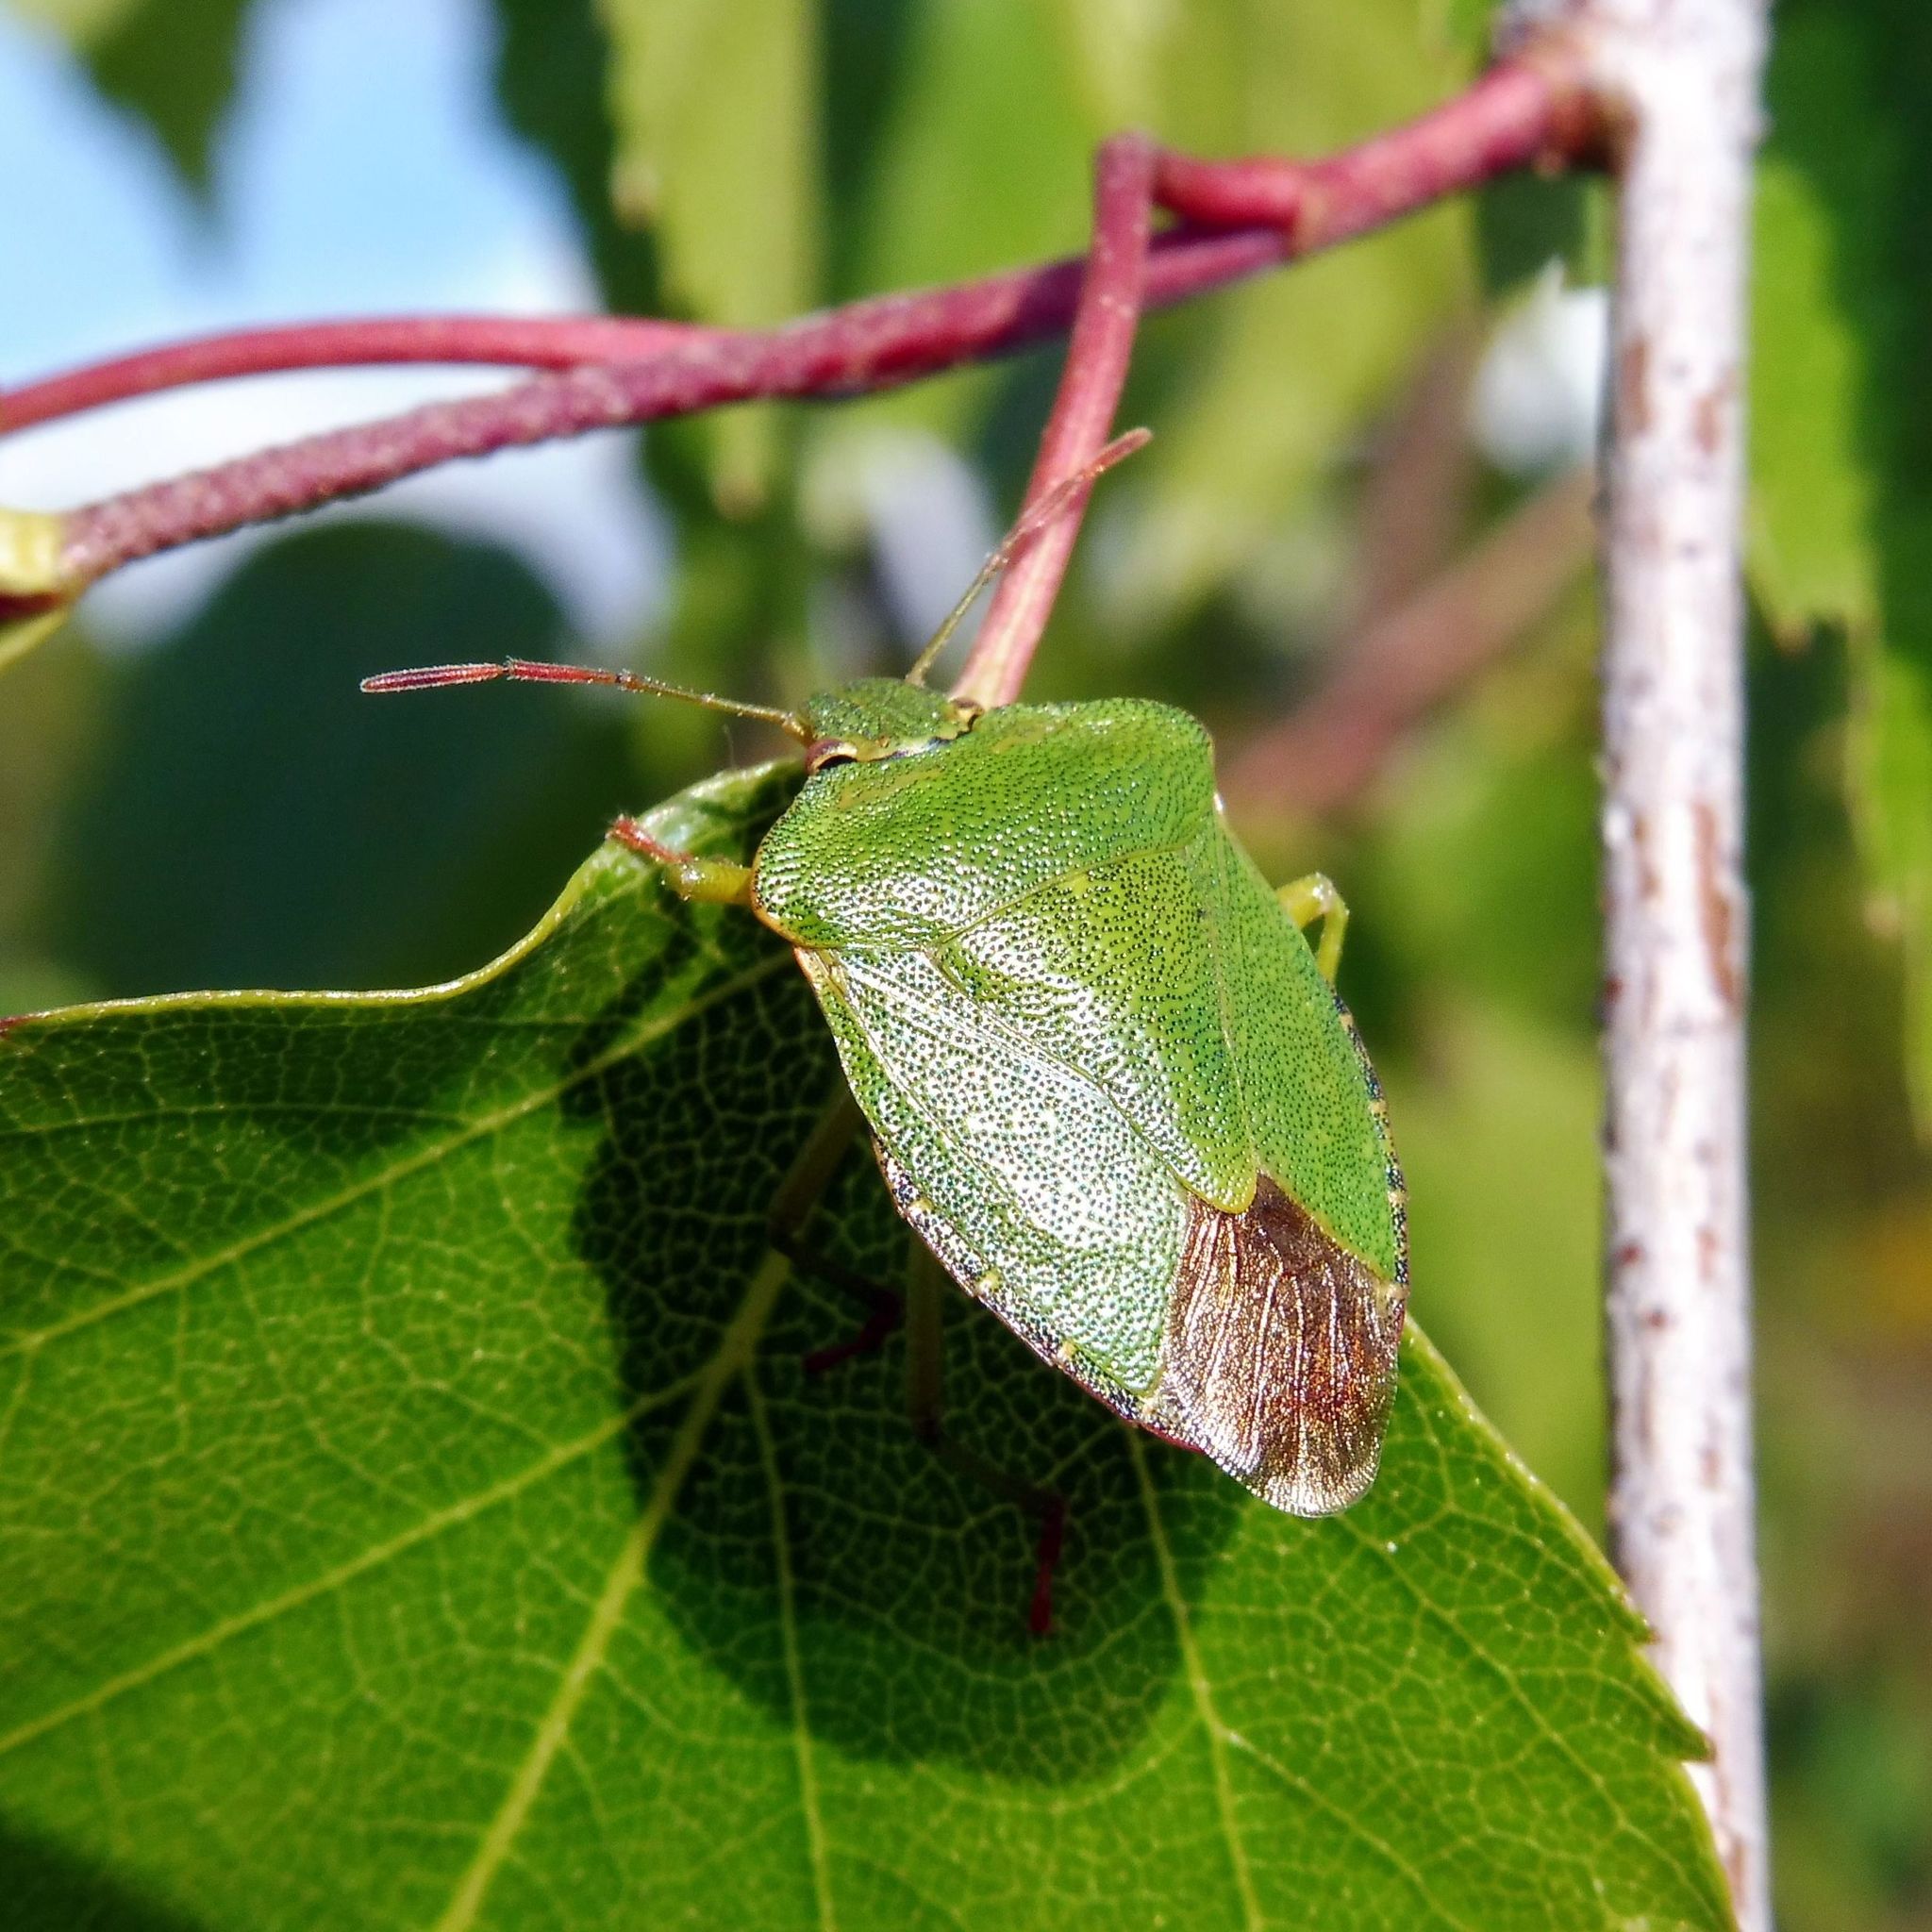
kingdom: Animalia
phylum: Arthropoda
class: Insecta
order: Hemiptera
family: Pentatomidae
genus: Palomena
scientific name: Palomena prasina
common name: Green shieldbug
